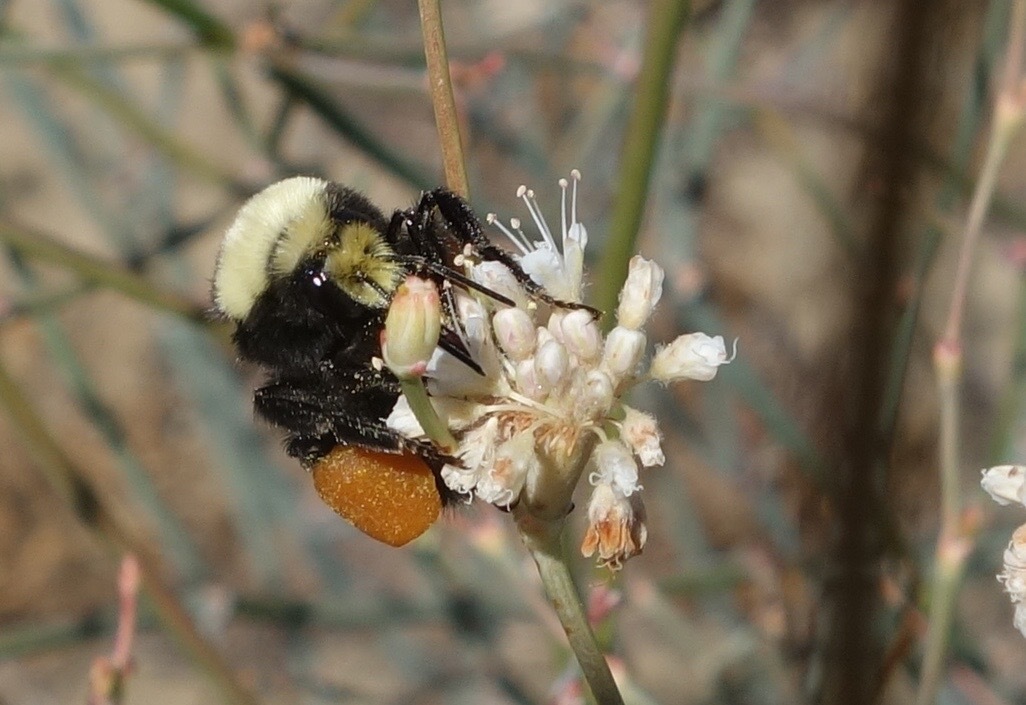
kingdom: Animalia
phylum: Arthropoda
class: Insecta
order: Hymenoptera
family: Apidae
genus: Bombus
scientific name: Bombus vosnesenskii
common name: Vosnesensky bumble bee
